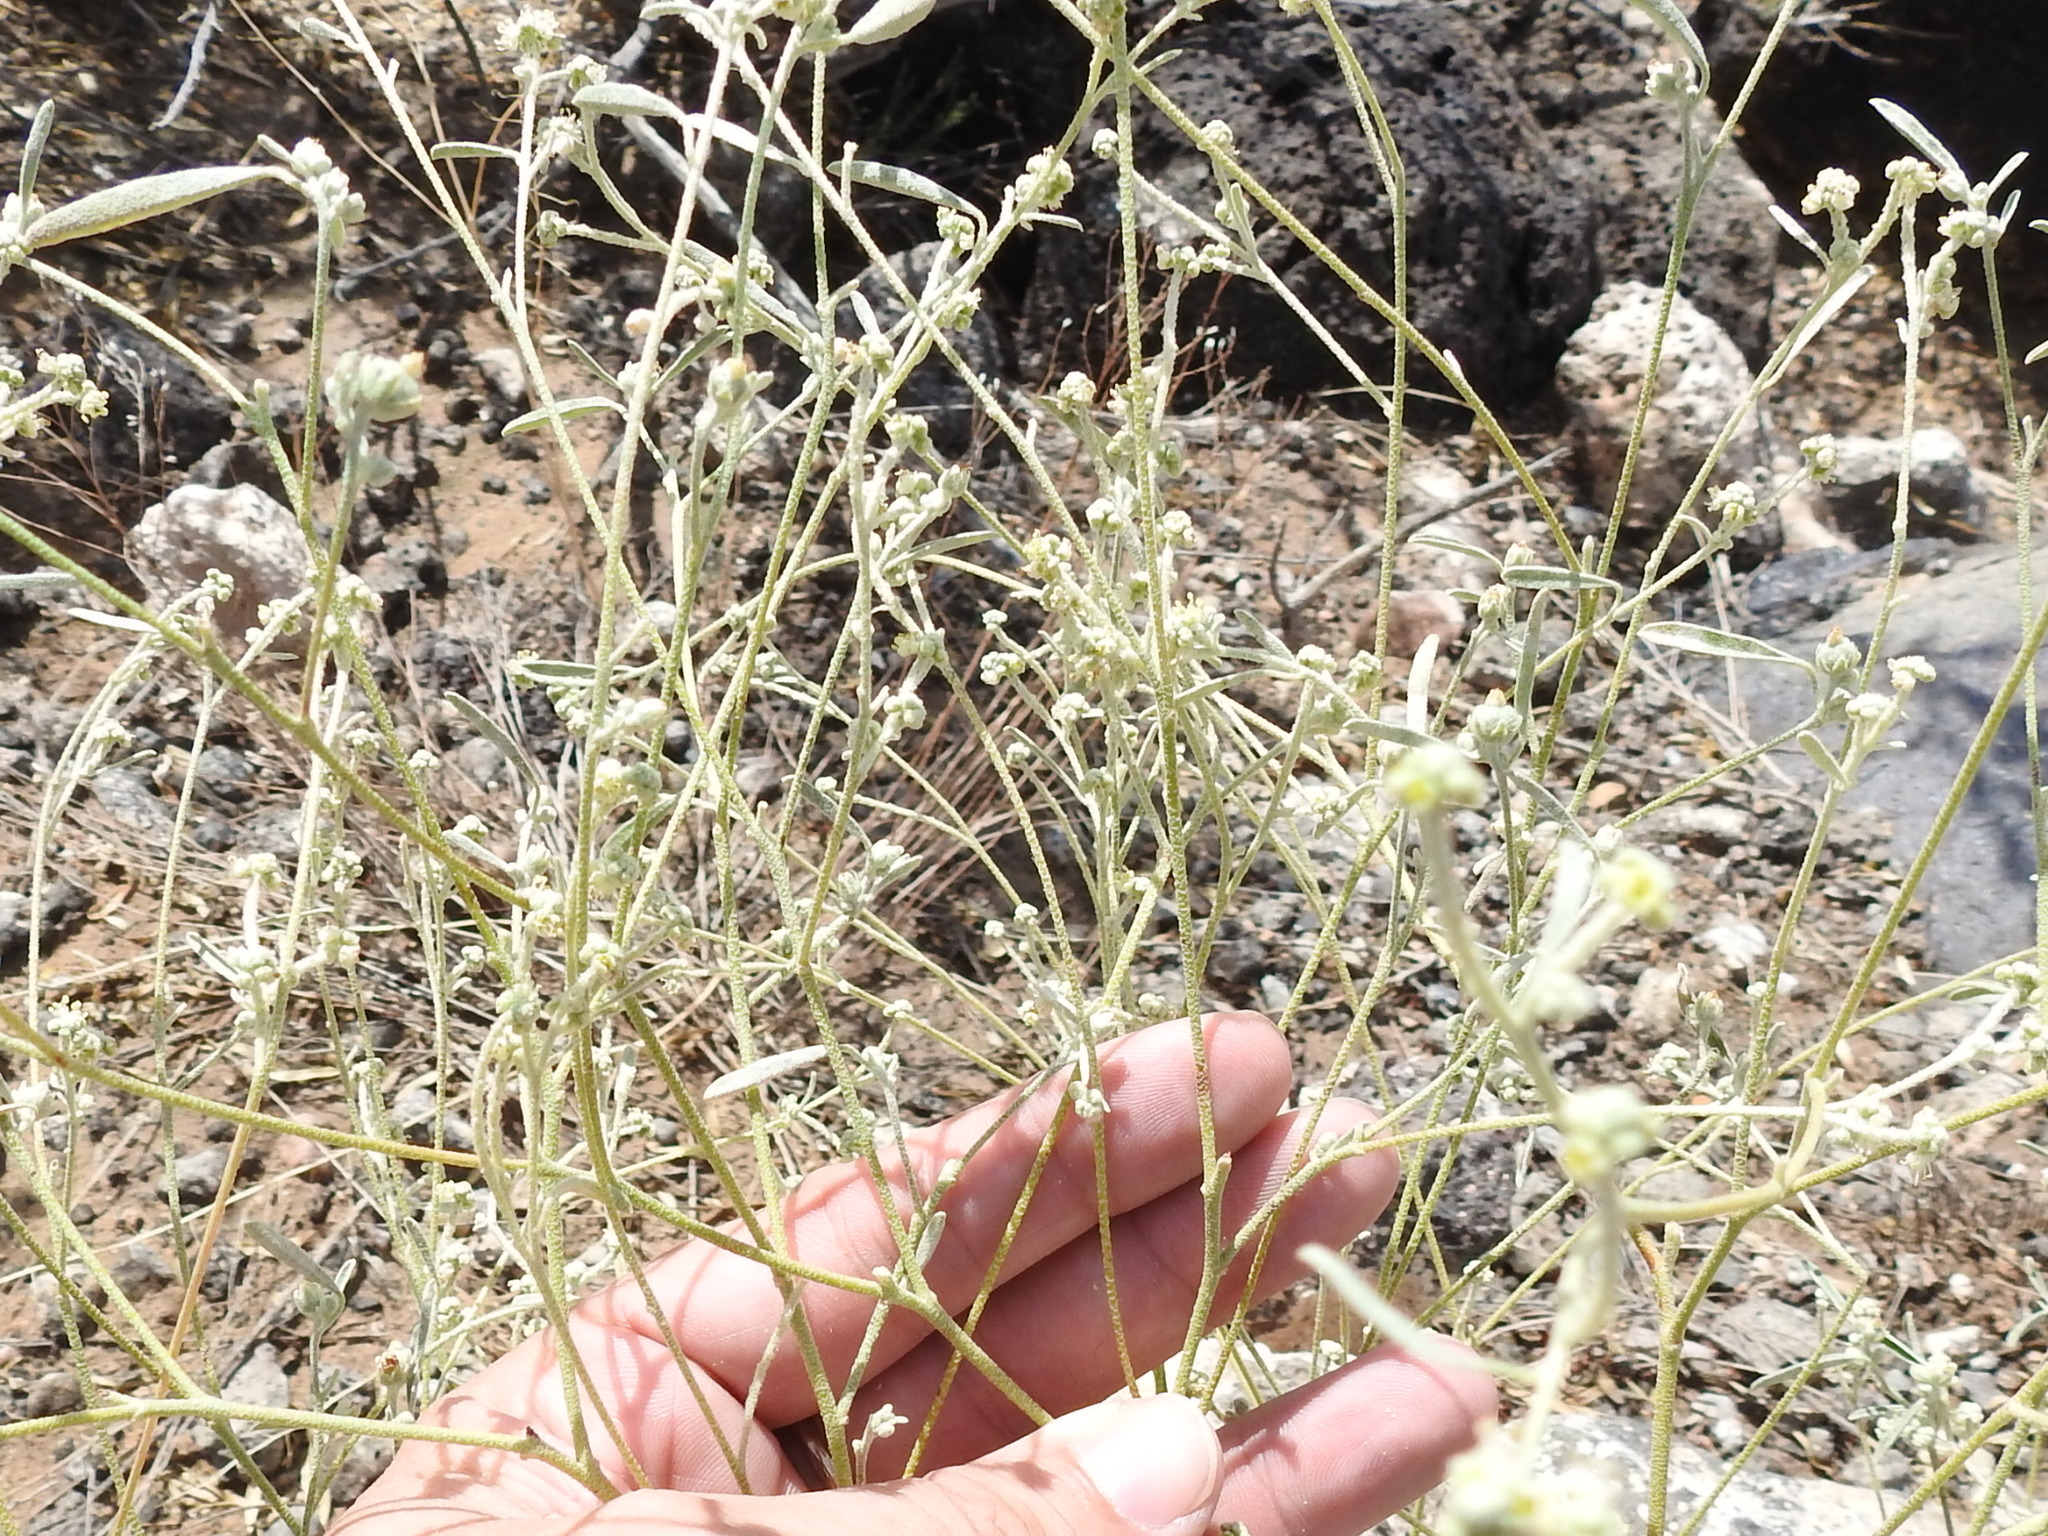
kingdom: Plantae
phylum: Tracheophyta
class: Magnoliopsida
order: Malpighiales
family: Euphorbiaceae
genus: Croton
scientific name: Croton texensis
